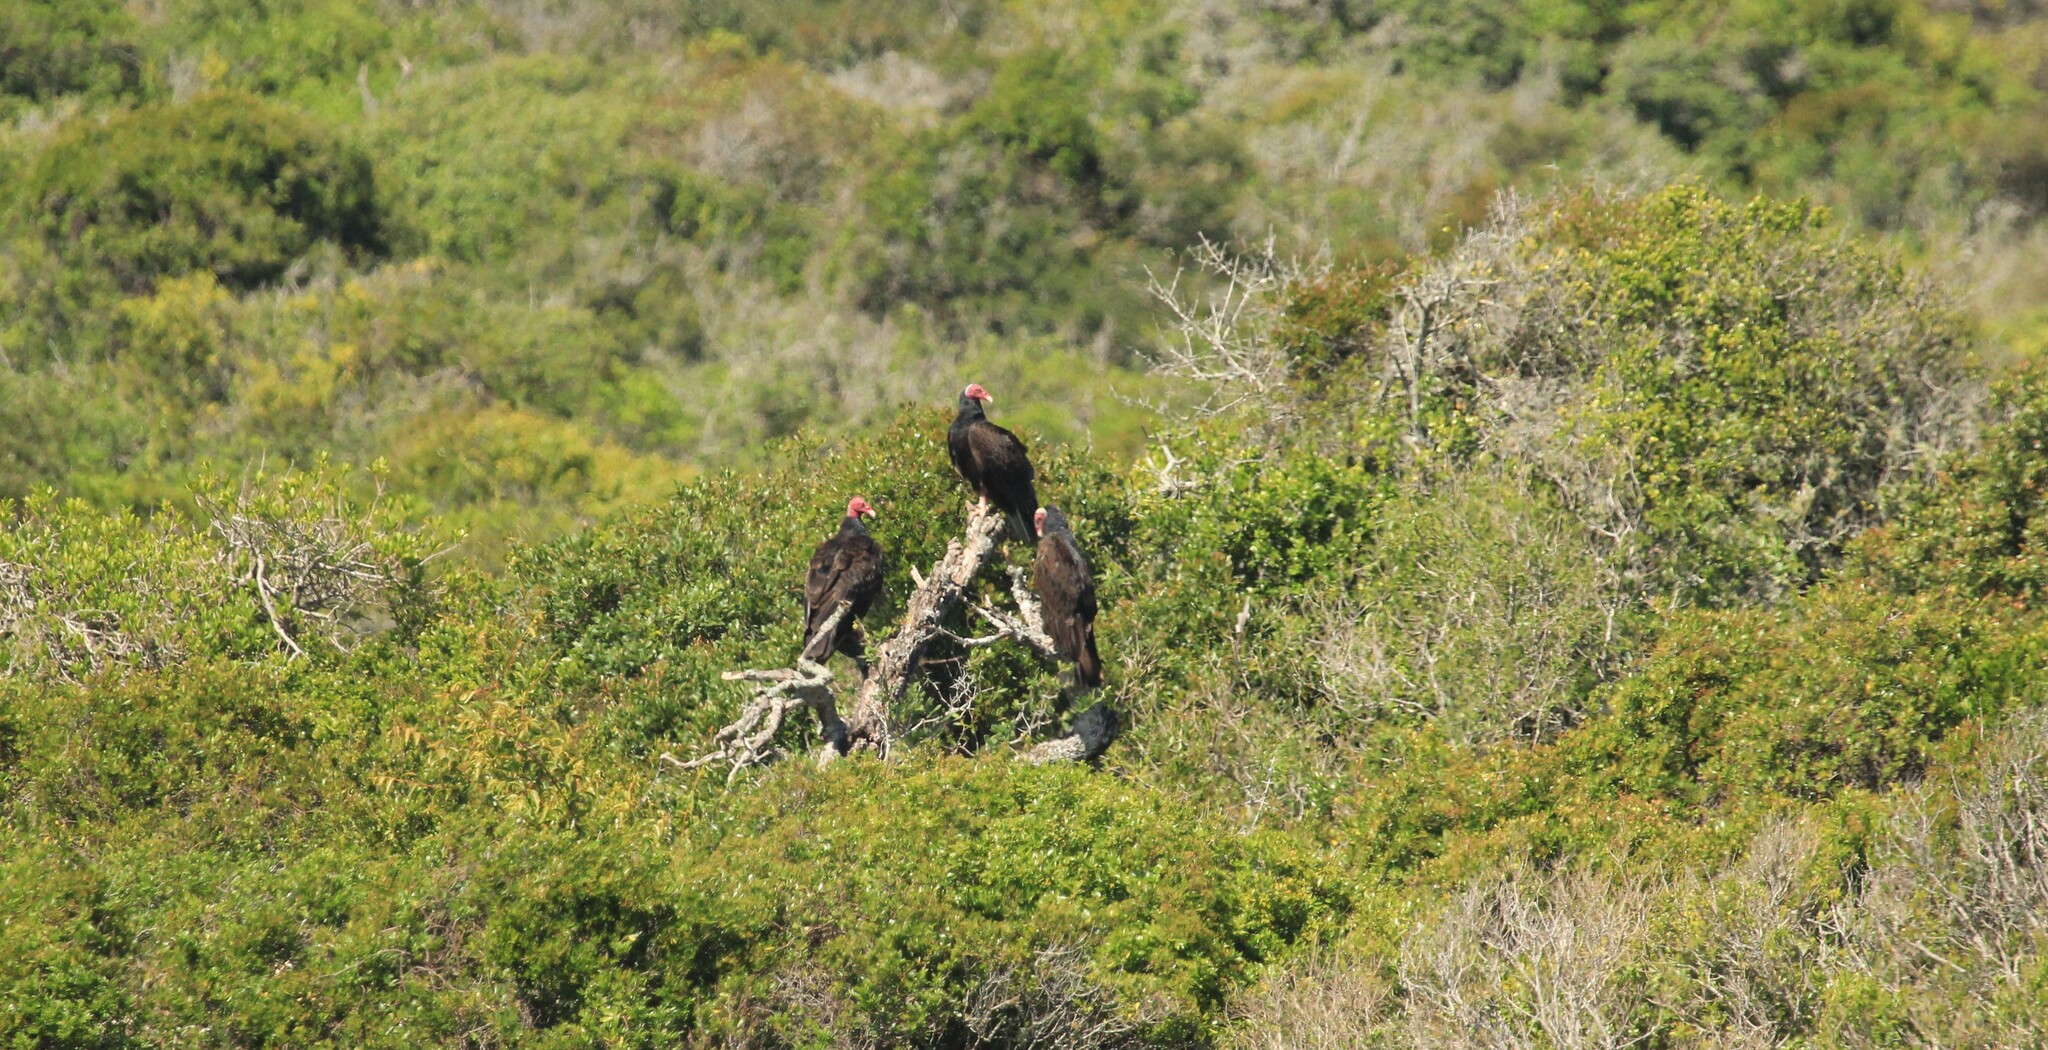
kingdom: Animalia
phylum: Chordata
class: Aves
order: Accipitriformes
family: Cathartidae
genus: Cathartes
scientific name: Cathartes aura
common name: Turkey vulture
